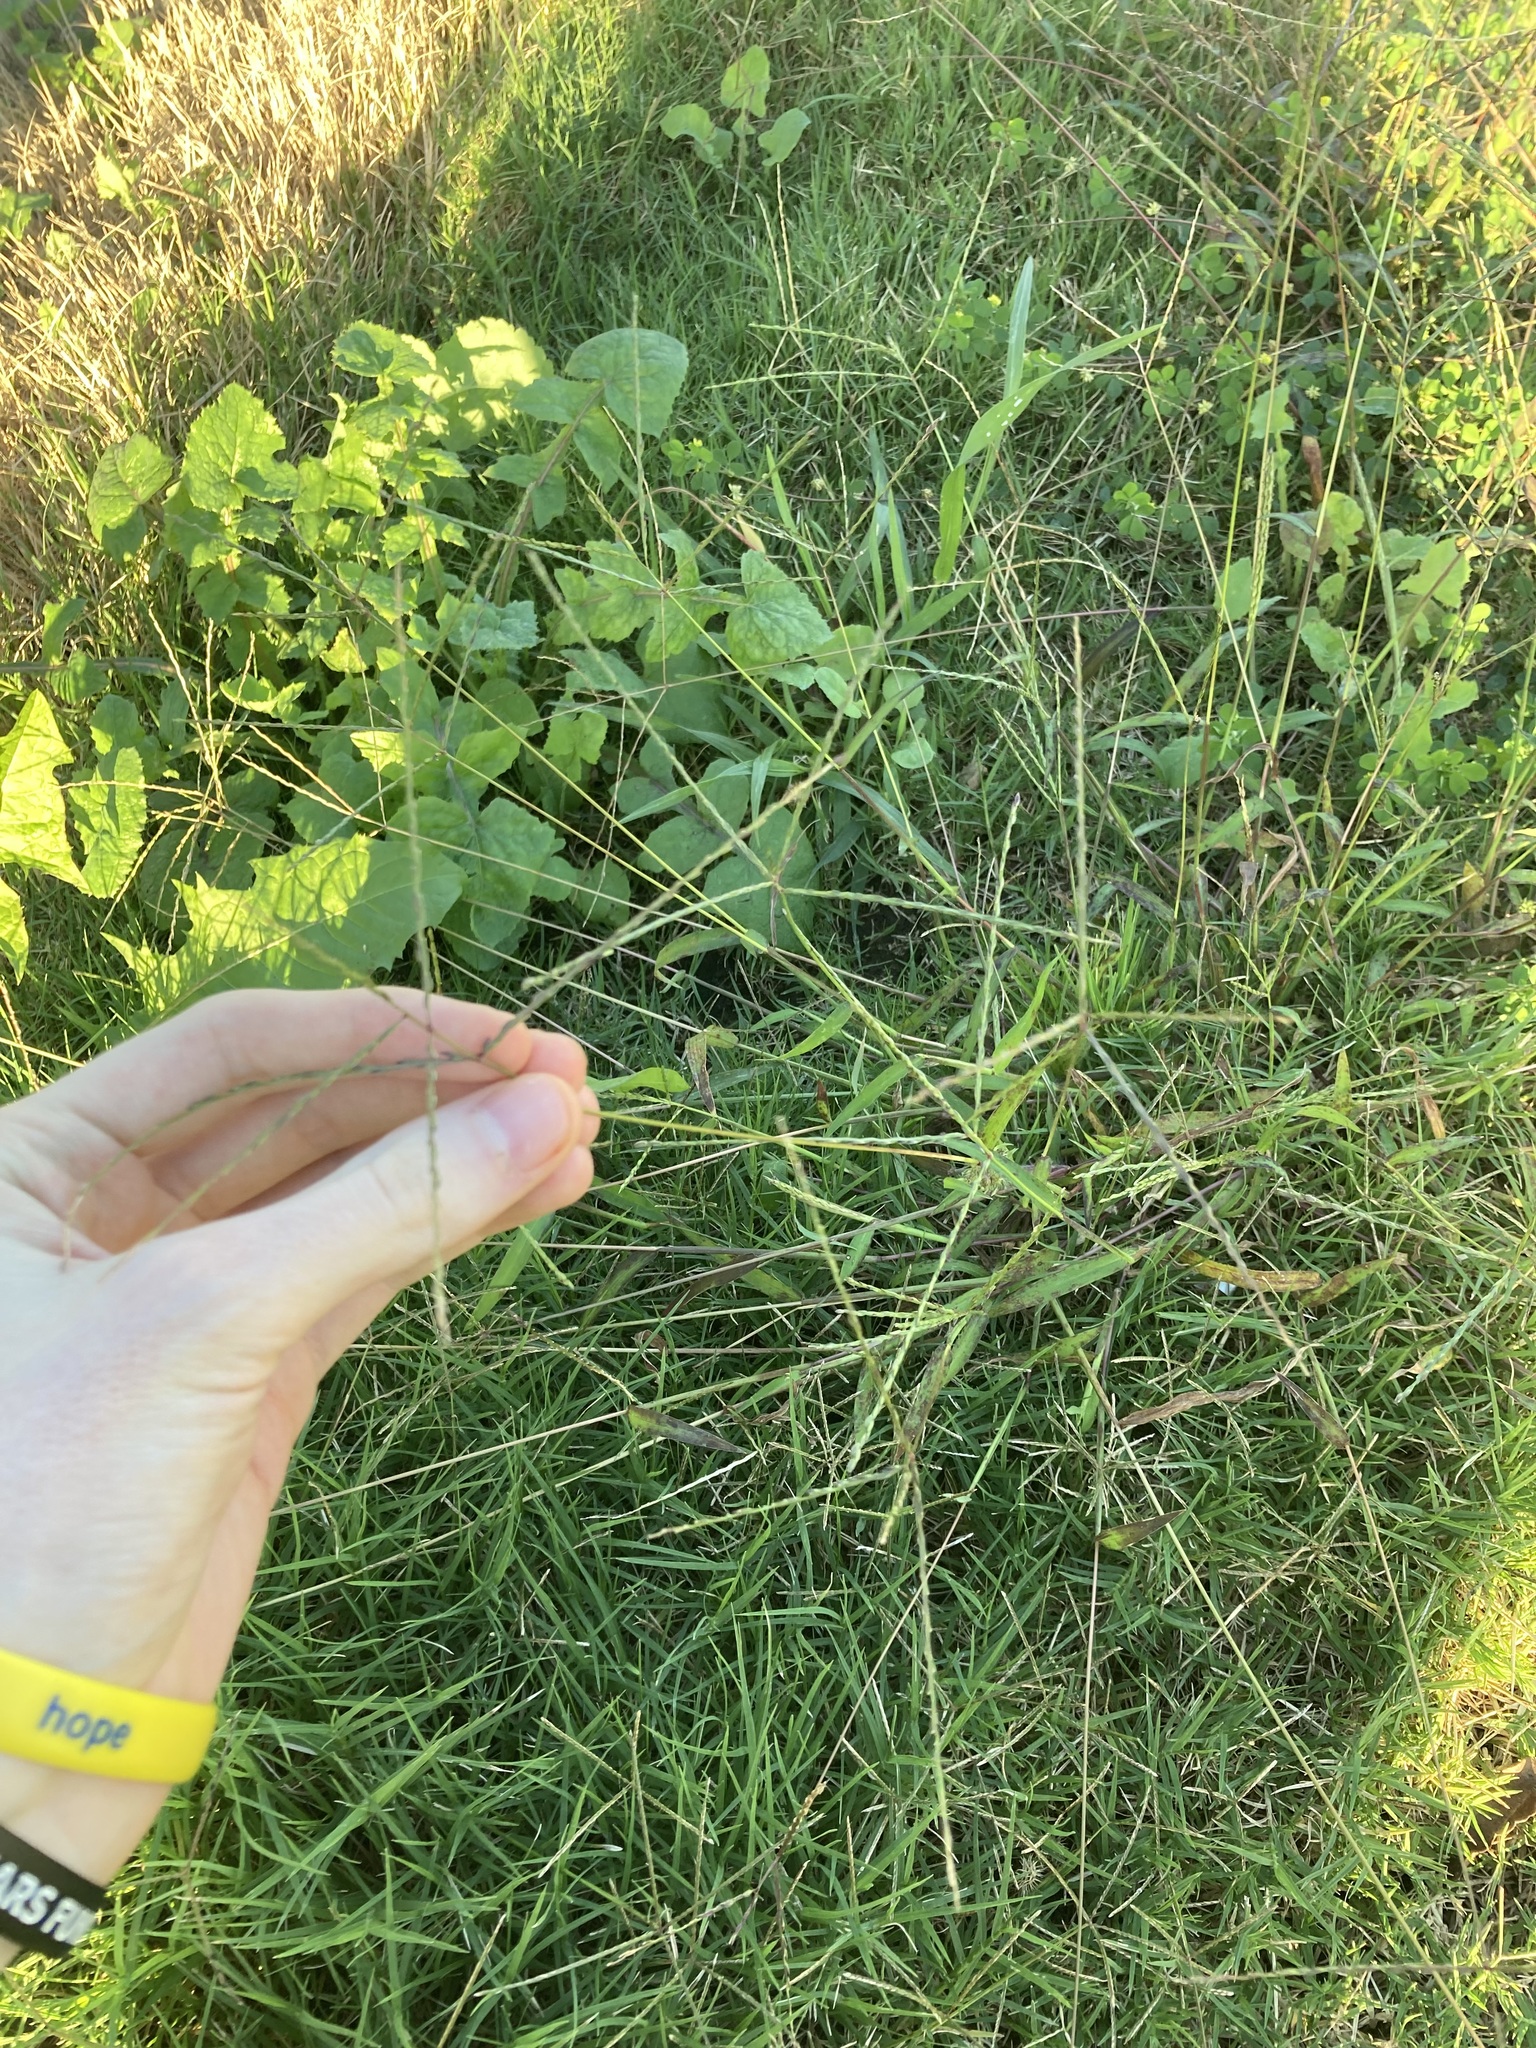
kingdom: Plantae
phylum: Tracheophyta
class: Liliopsida
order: Poales
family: Poaceae
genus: Digitaria
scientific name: Digitaria ciliaris
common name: Tropical finger-grass
